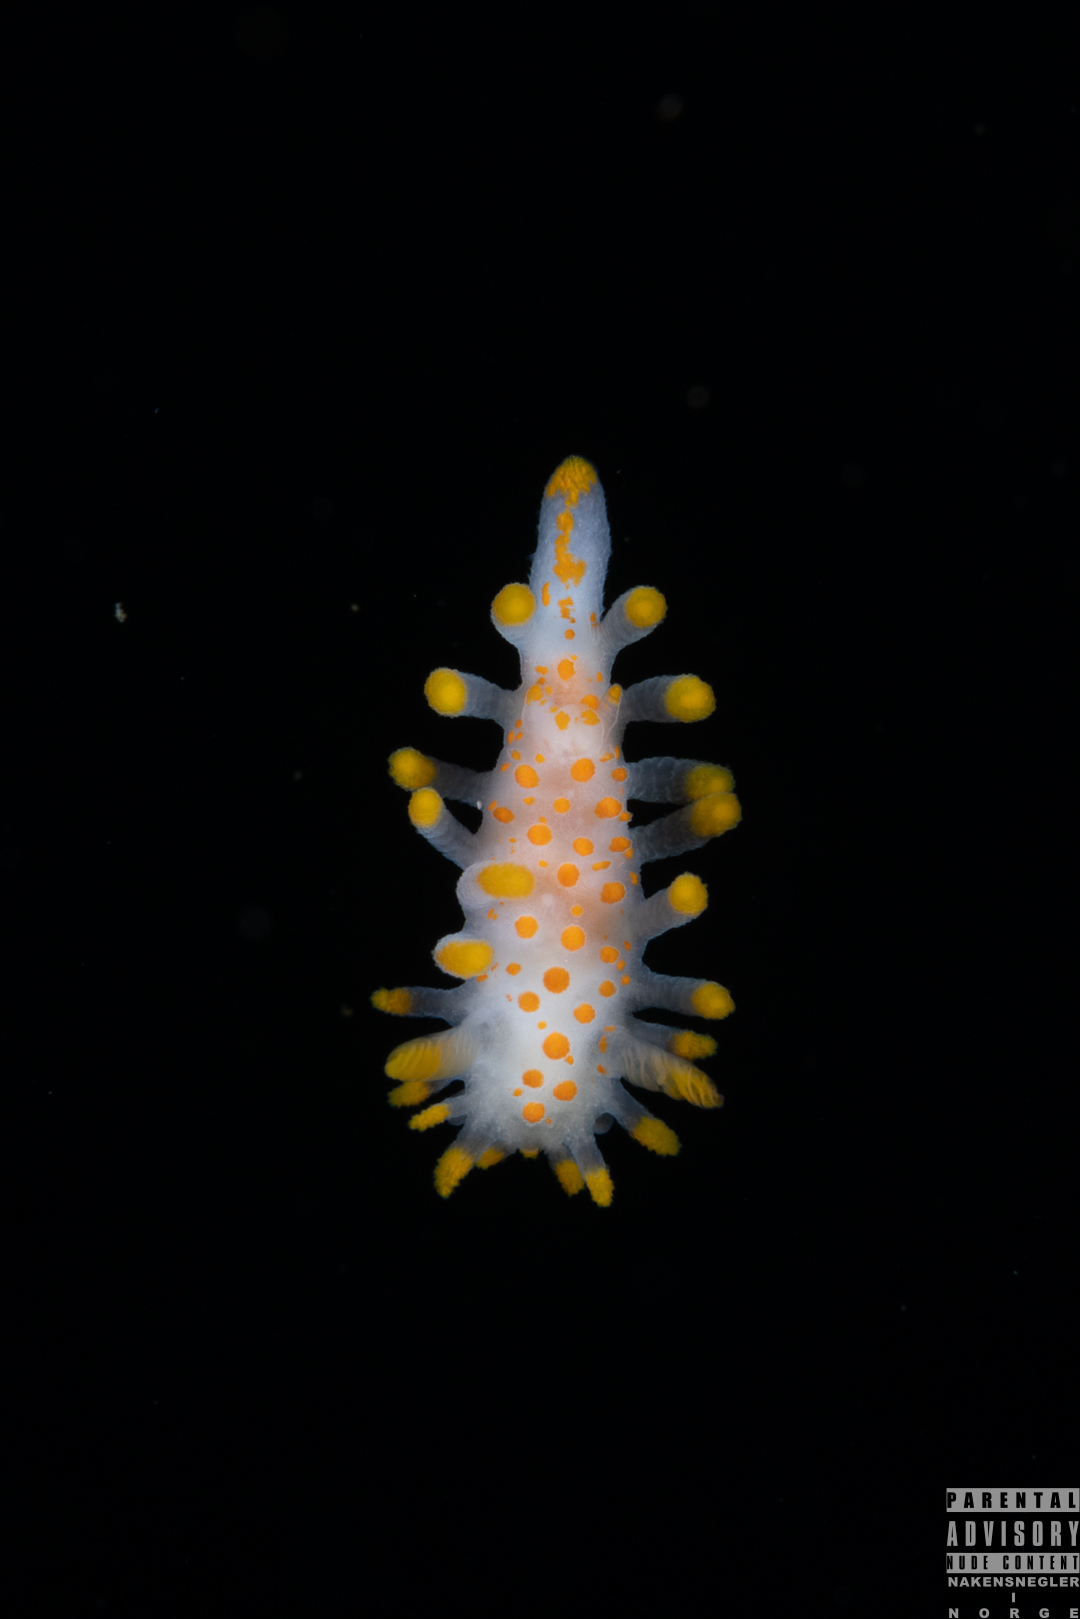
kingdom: Animalia
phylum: Mollusca
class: Gastropoda
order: Nudibranchia
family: Polyceridae
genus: Limacia
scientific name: Limacia clavigera
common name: Orange-clubbed sea slug
